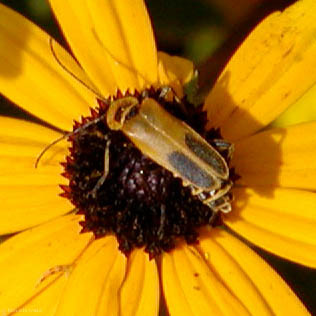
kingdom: Animalia
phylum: Arthropoda
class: Insecta
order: Coleoptera
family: Cantharidae
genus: Chauliognathus
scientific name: Chauliognathus pensylvanicus
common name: Goldenrod soldier beetle
